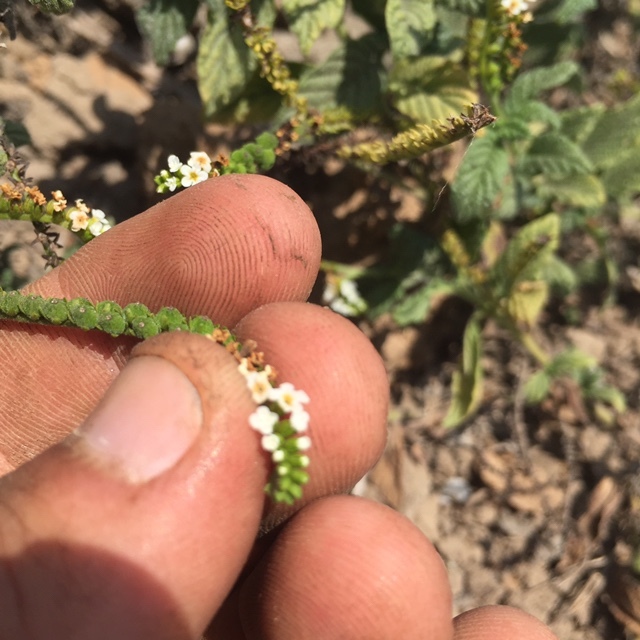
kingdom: Plantae
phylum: Tracheophyta
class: Magnoliopsida
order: Boraginales
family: Heliotropiaceae
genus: Heliotropium
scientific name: Heliotropium angiospermum
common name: Eye bright
